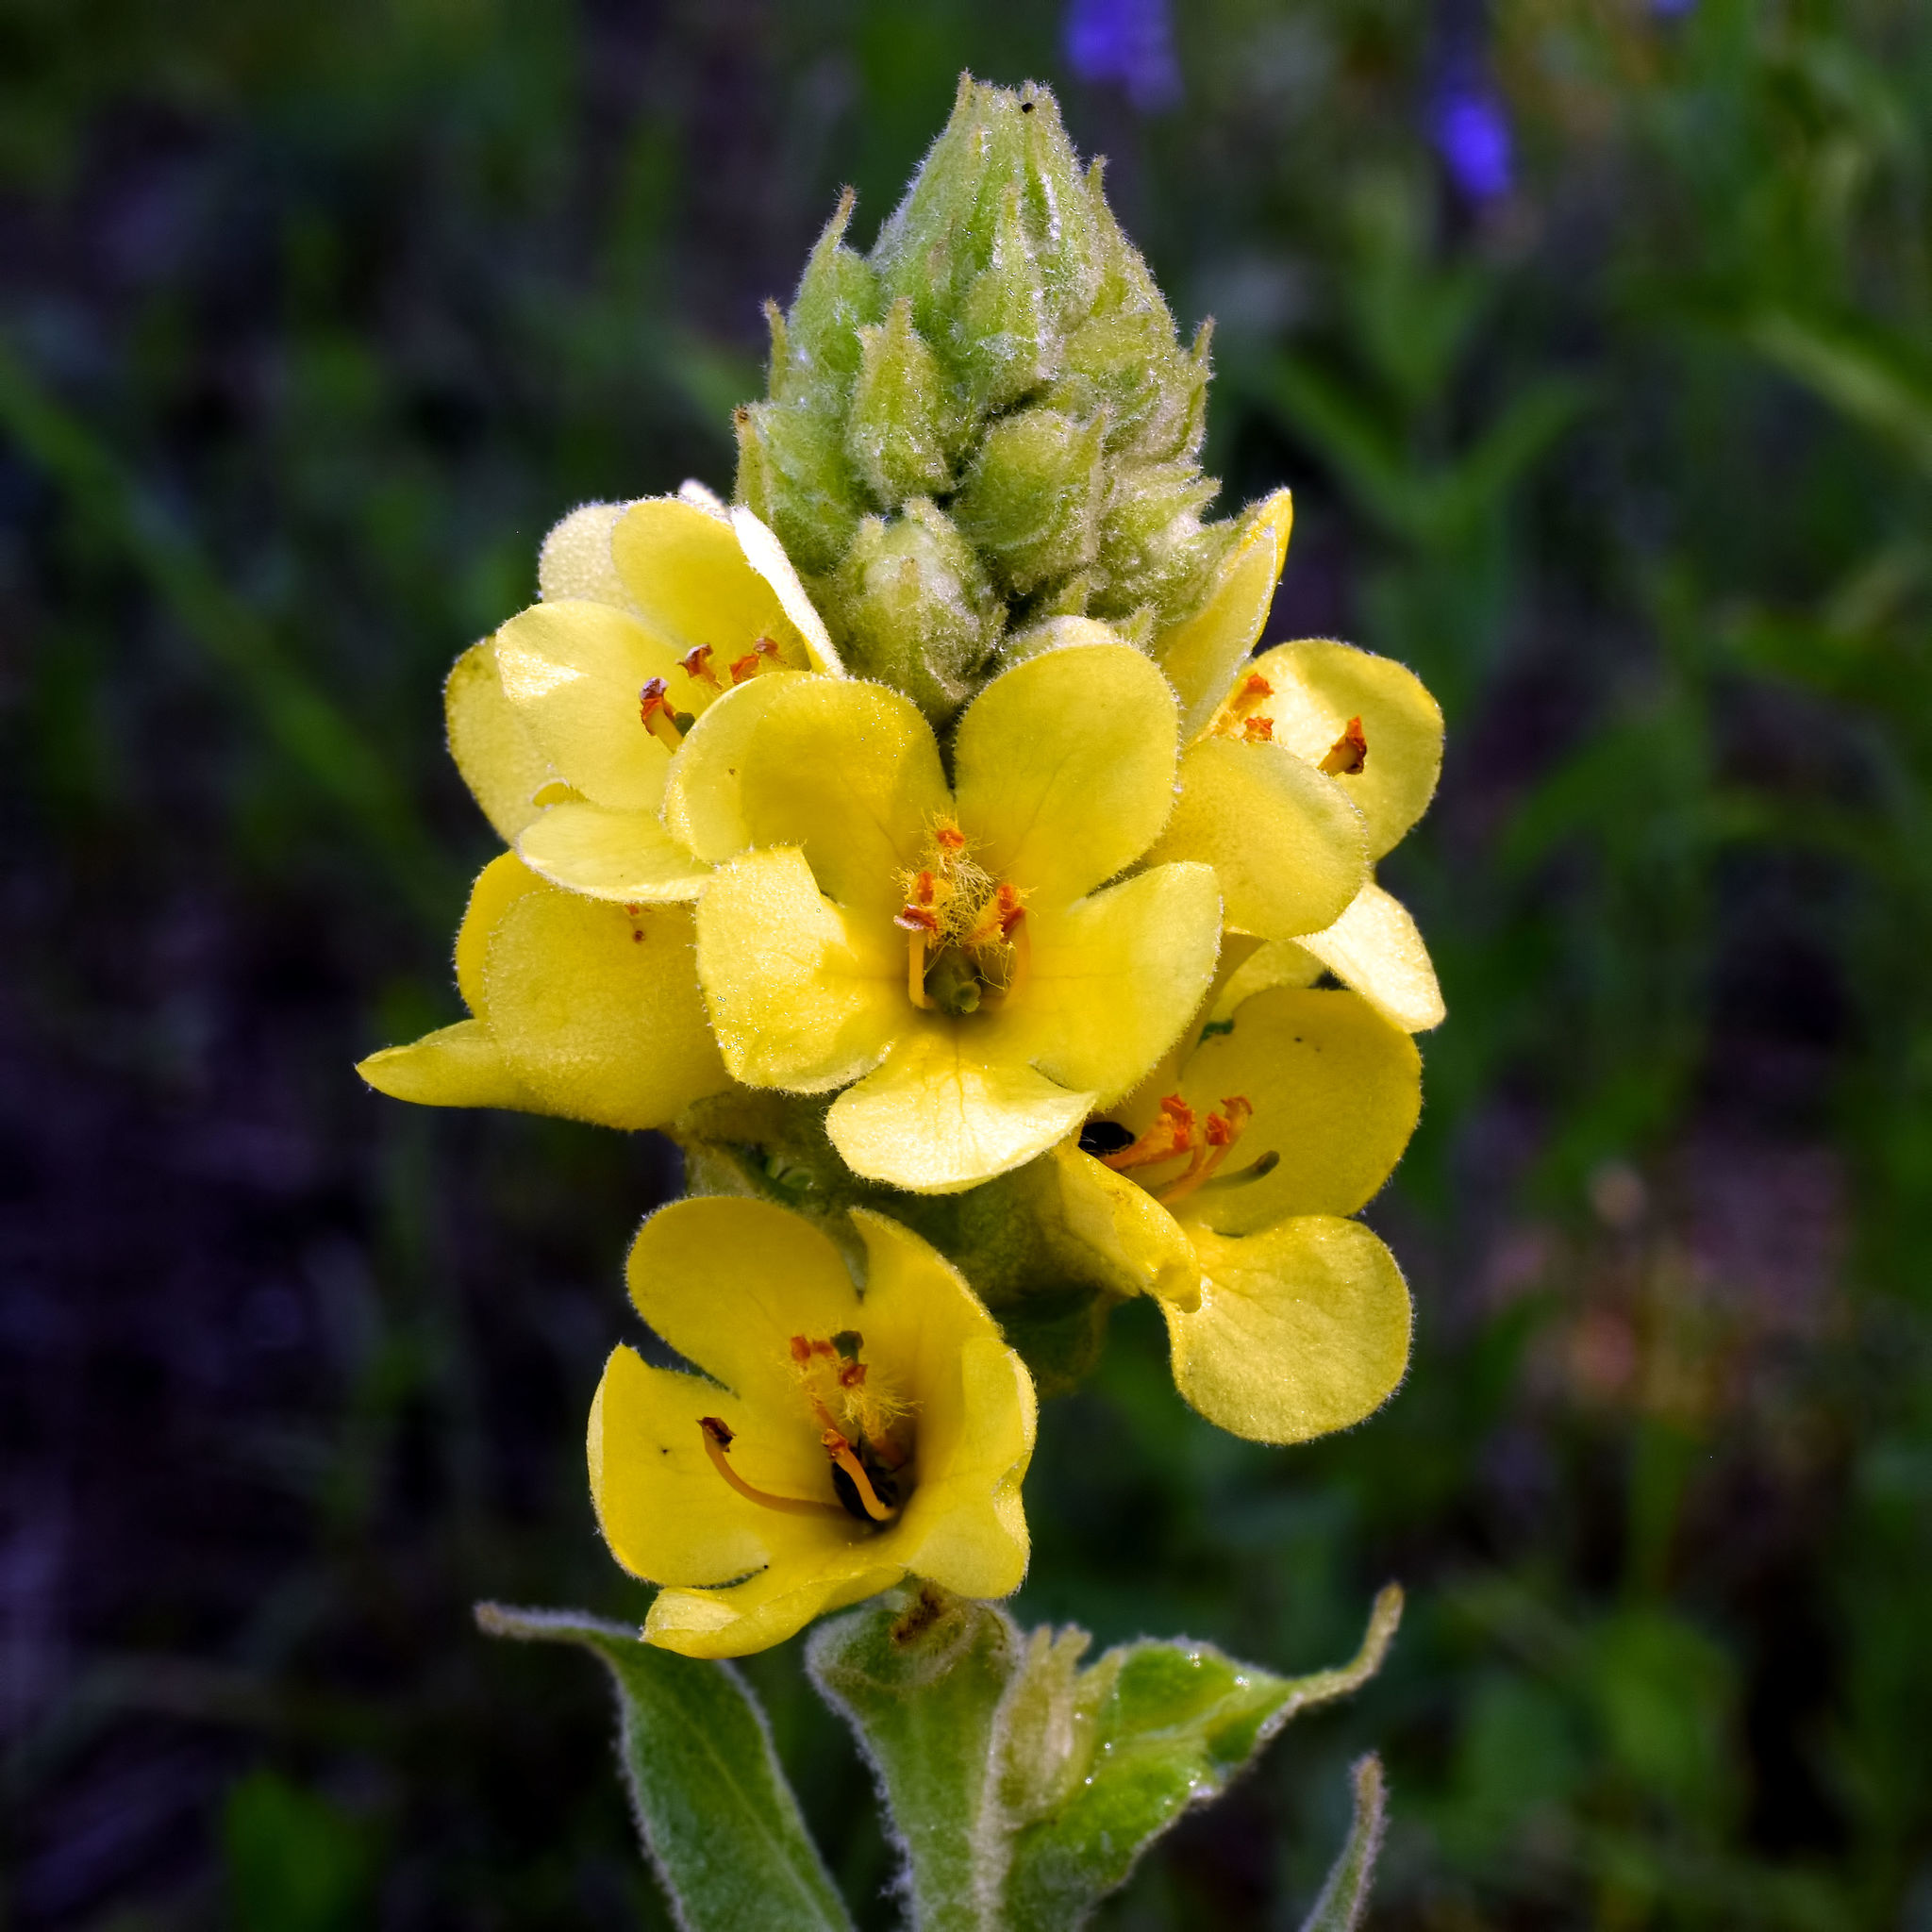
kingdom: Plantae
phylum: Tracheophyta
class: Magnoliopsida
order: Lamiales
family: Scrophulariaceae
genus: Verbascum
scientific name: Verbascum thapsus
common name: Common mullein
